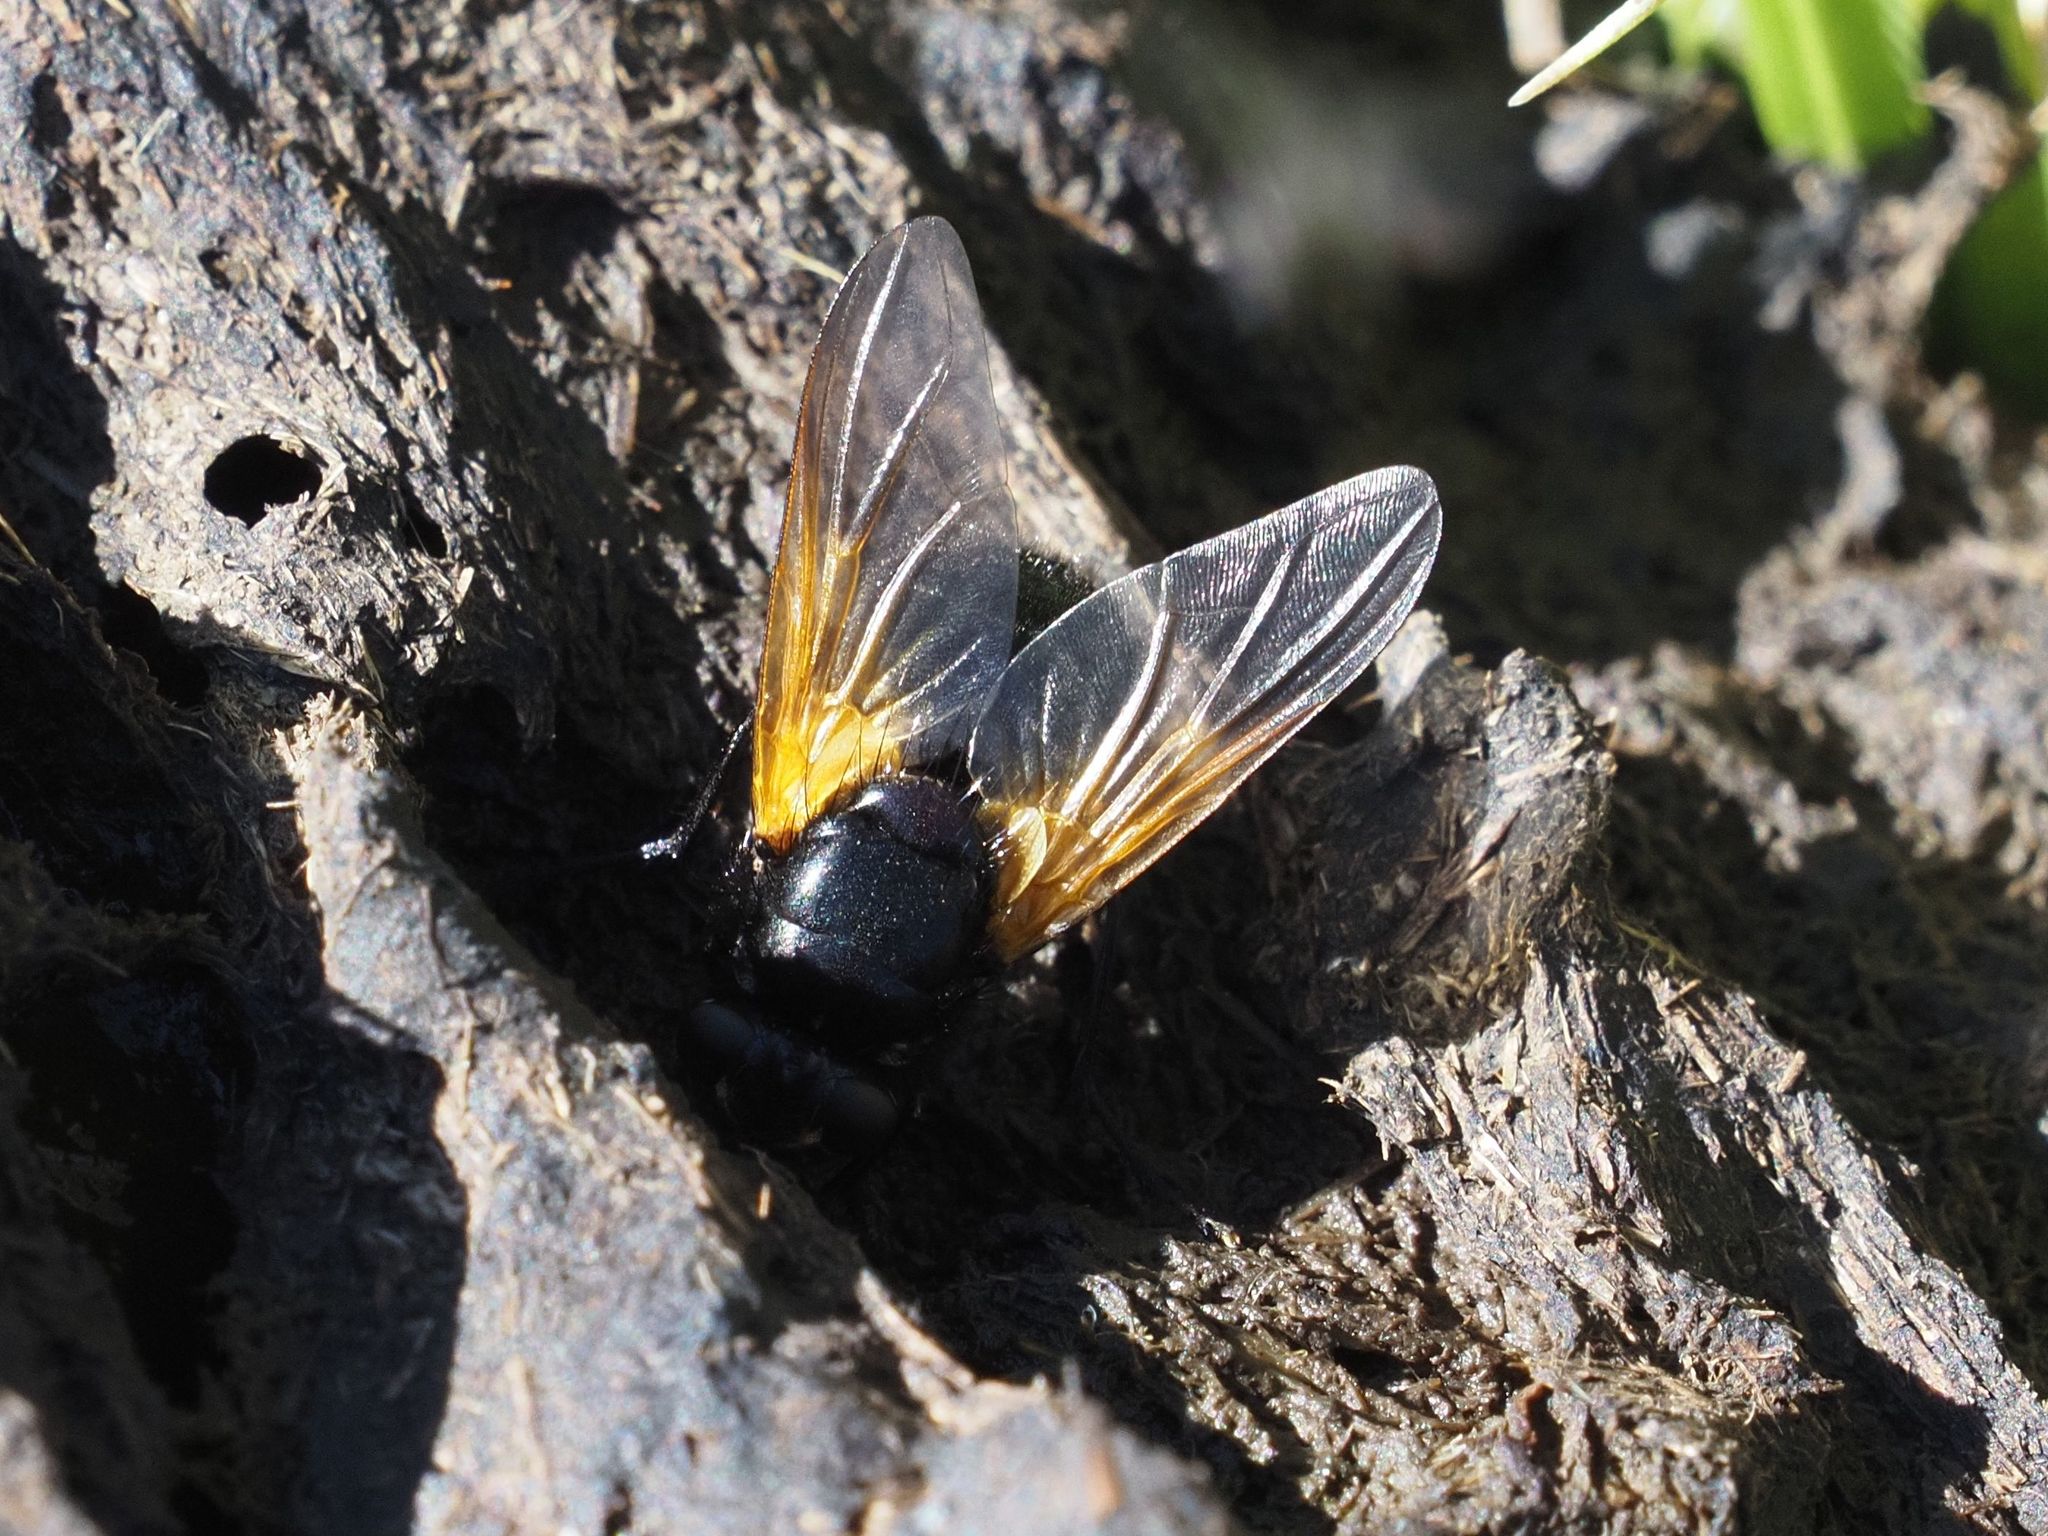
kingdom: Animalia
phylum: Arthropoda
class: Insecta
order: Diptera
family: Muscidae
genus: Mesembrina
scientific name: Mesembrina meridiana
